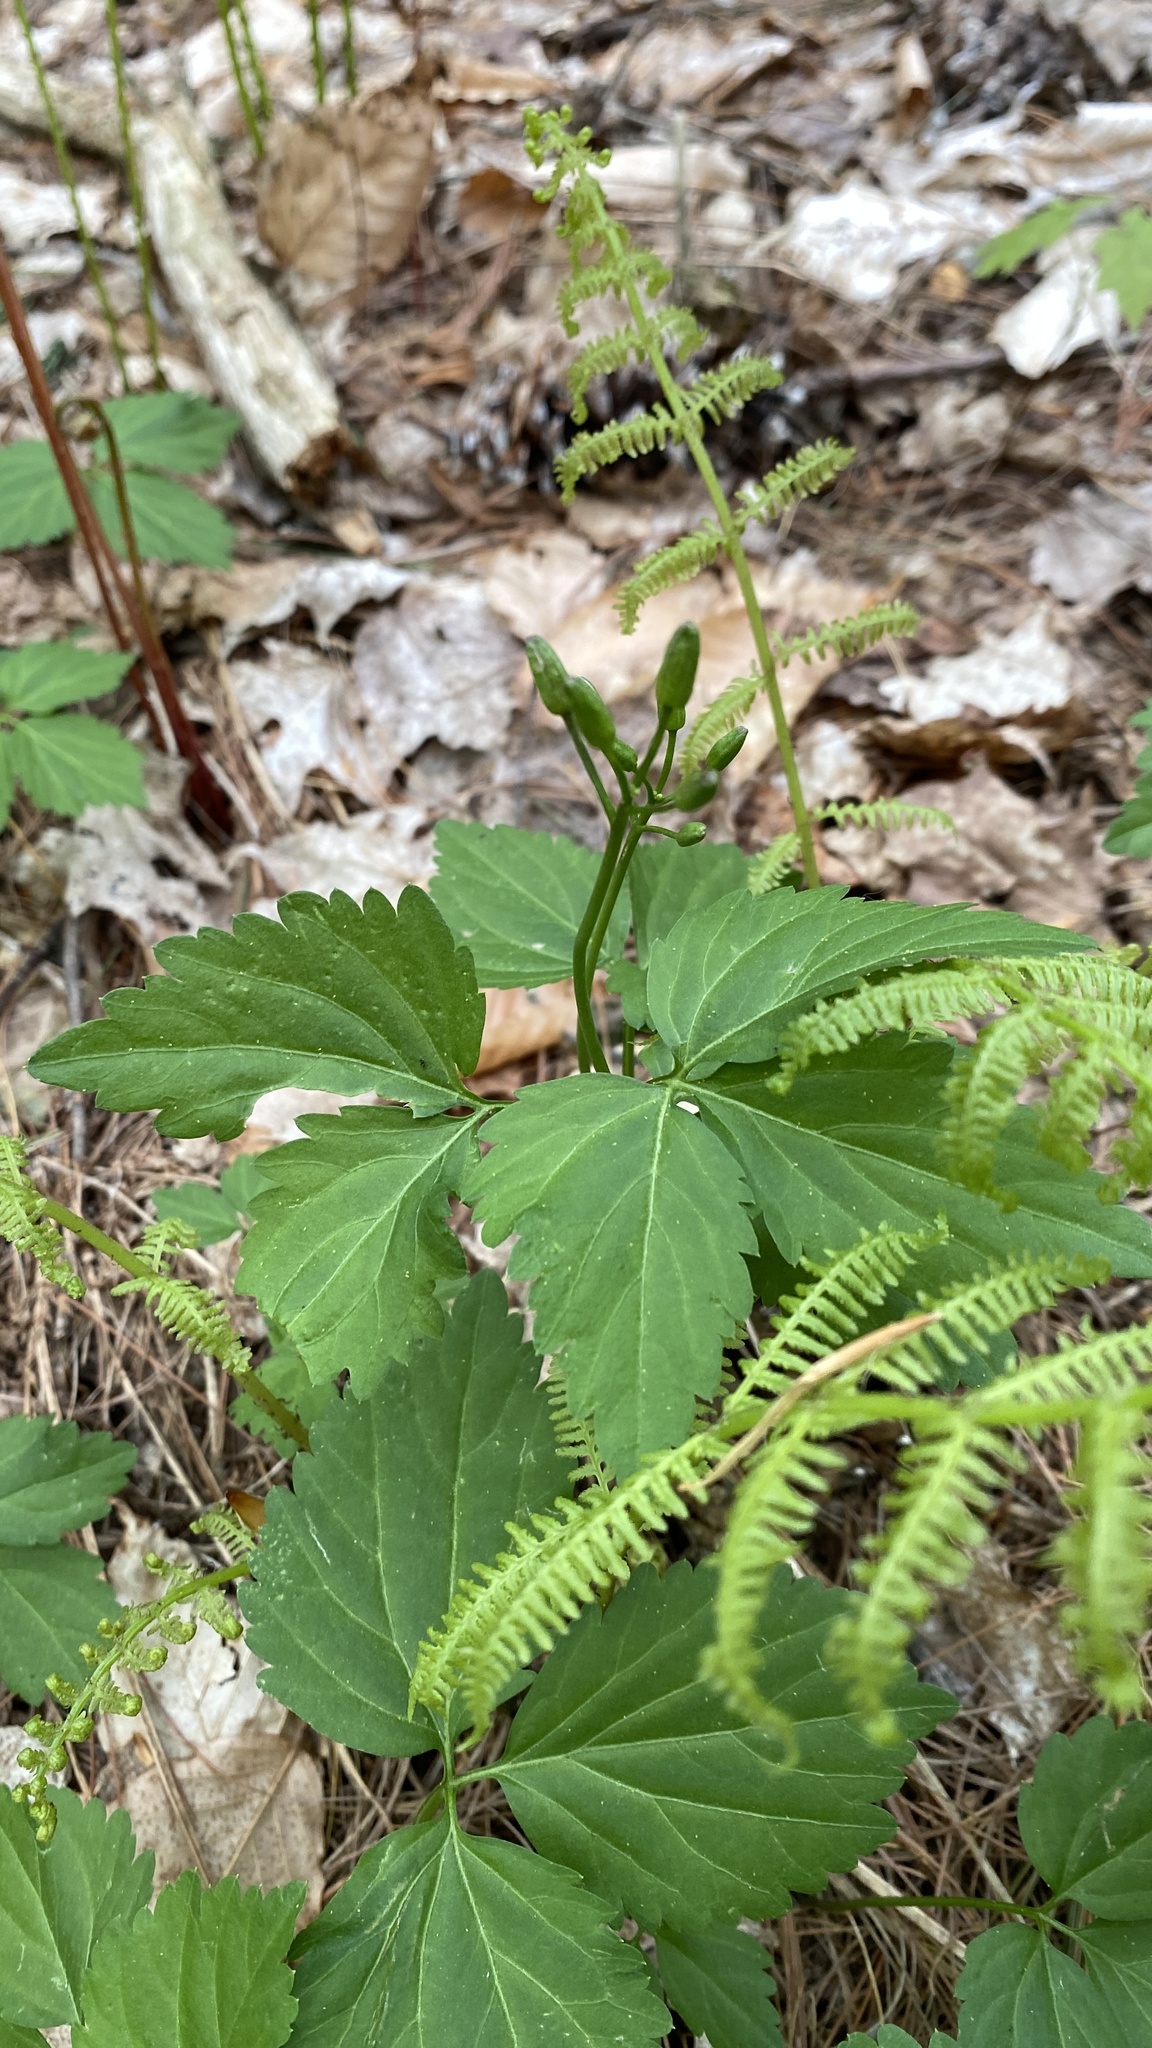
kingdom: Plantae
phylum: Tracheophyta
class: Magnoliopsida
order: Brassicales
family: Brassicaceae
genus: Cardamine
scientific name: Cardamine diphylla
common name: Broad-leaved toothwort
